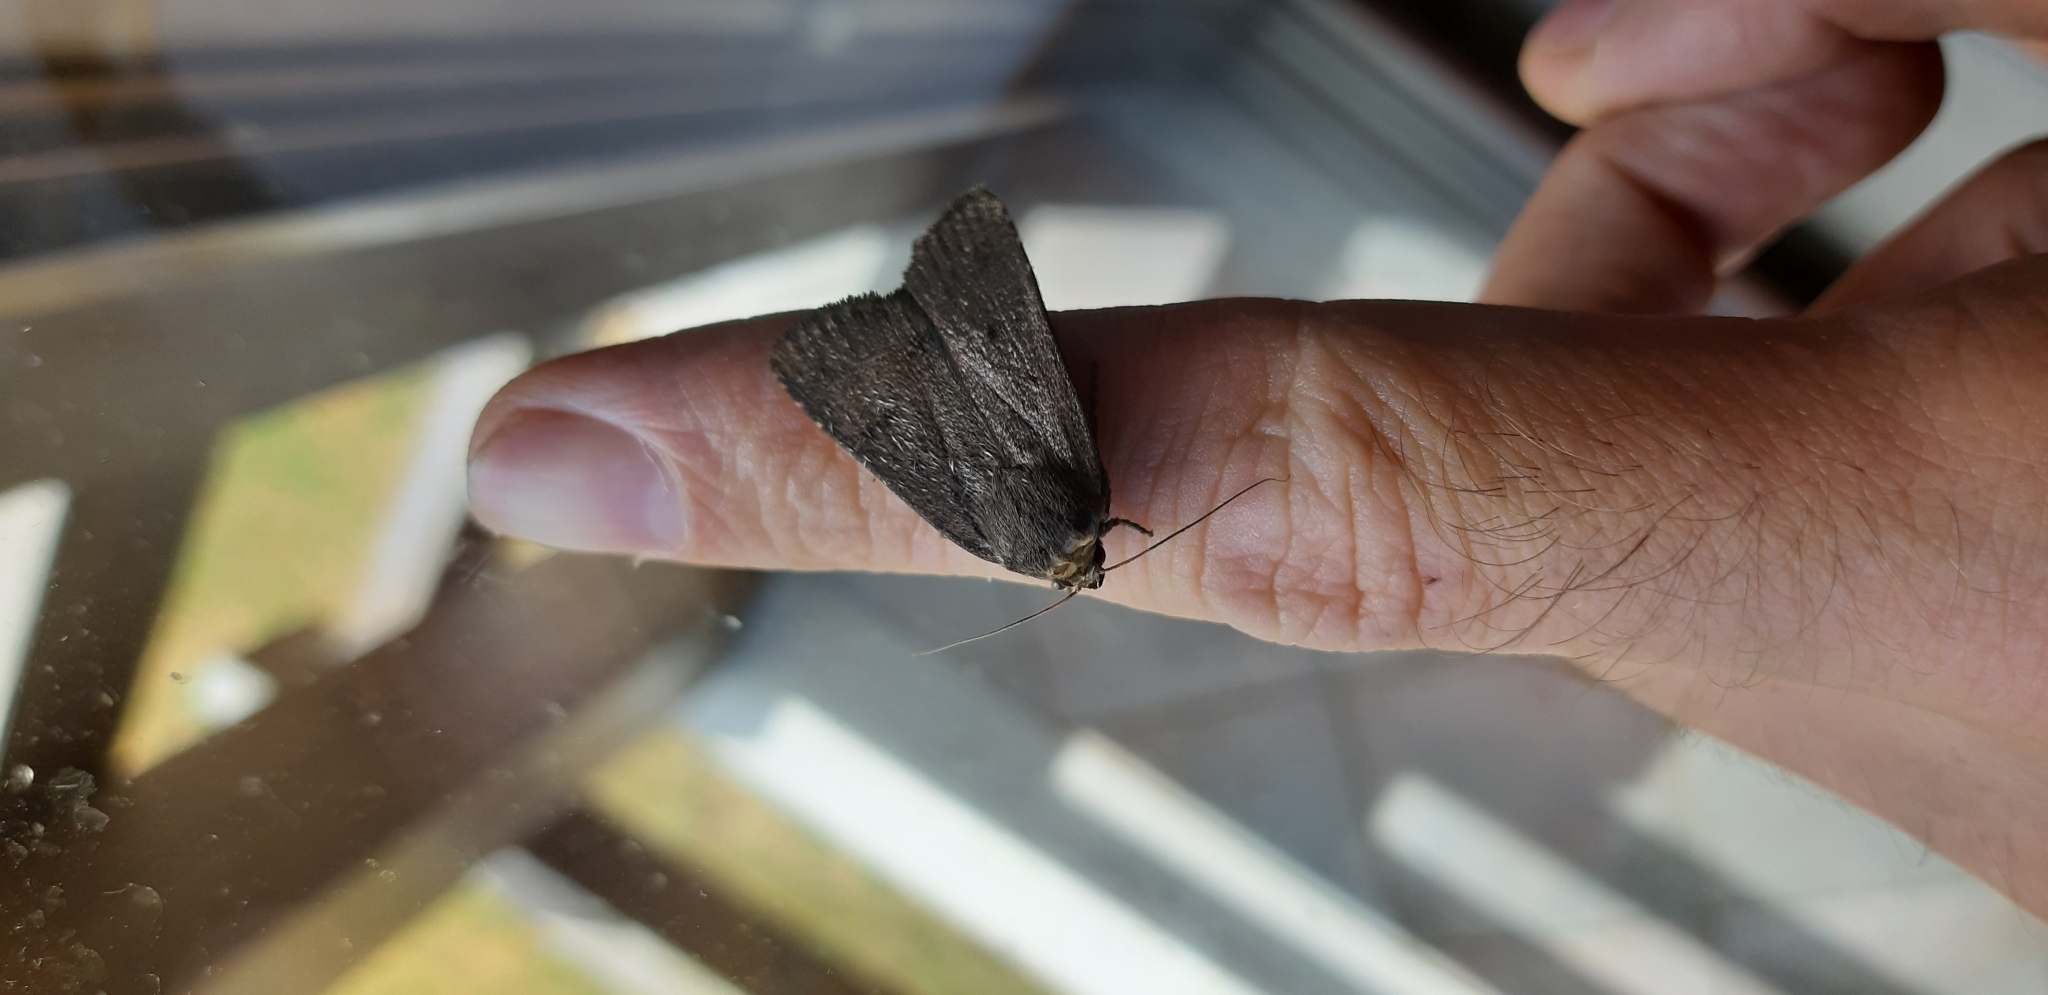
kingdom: Animalia
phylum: Arthropoda
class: Insecta
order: Lepidoptera
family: Noctuidae
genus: Amphipyra
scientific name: Amphipyra tragopoginis
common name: Mouse moth
